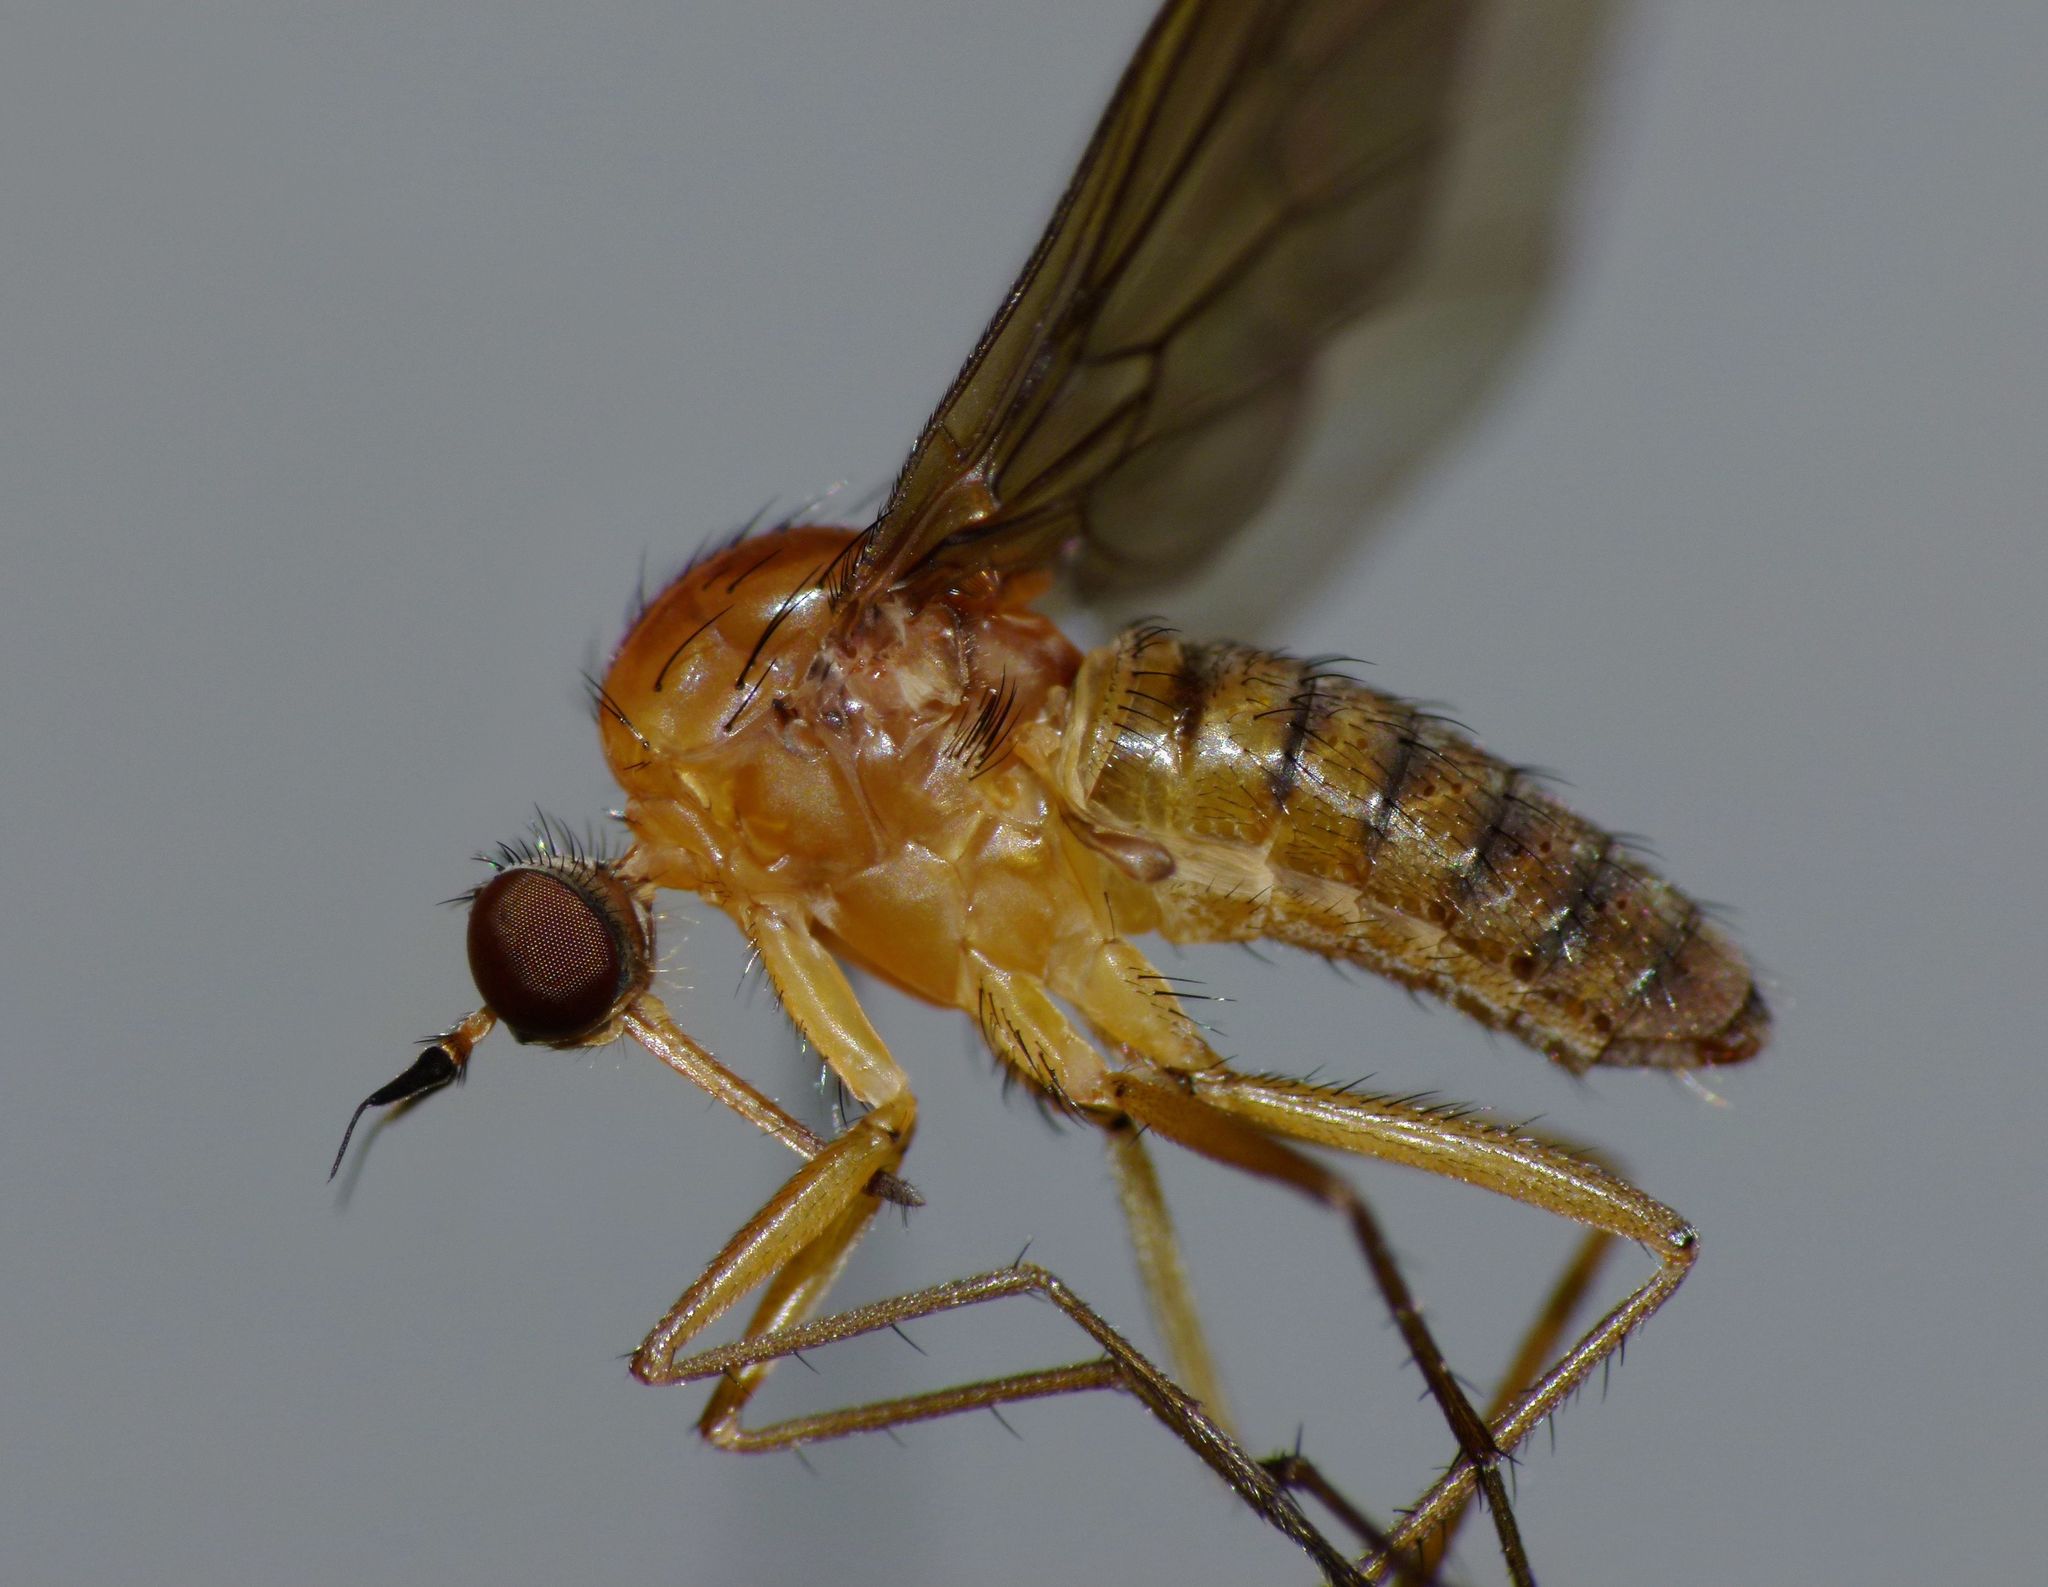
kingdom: Animalia
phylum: Arthropoda
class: Insecta
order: Diptera
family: Brachystomatidae
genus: Heterophlebus
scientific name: Heterophlebus
